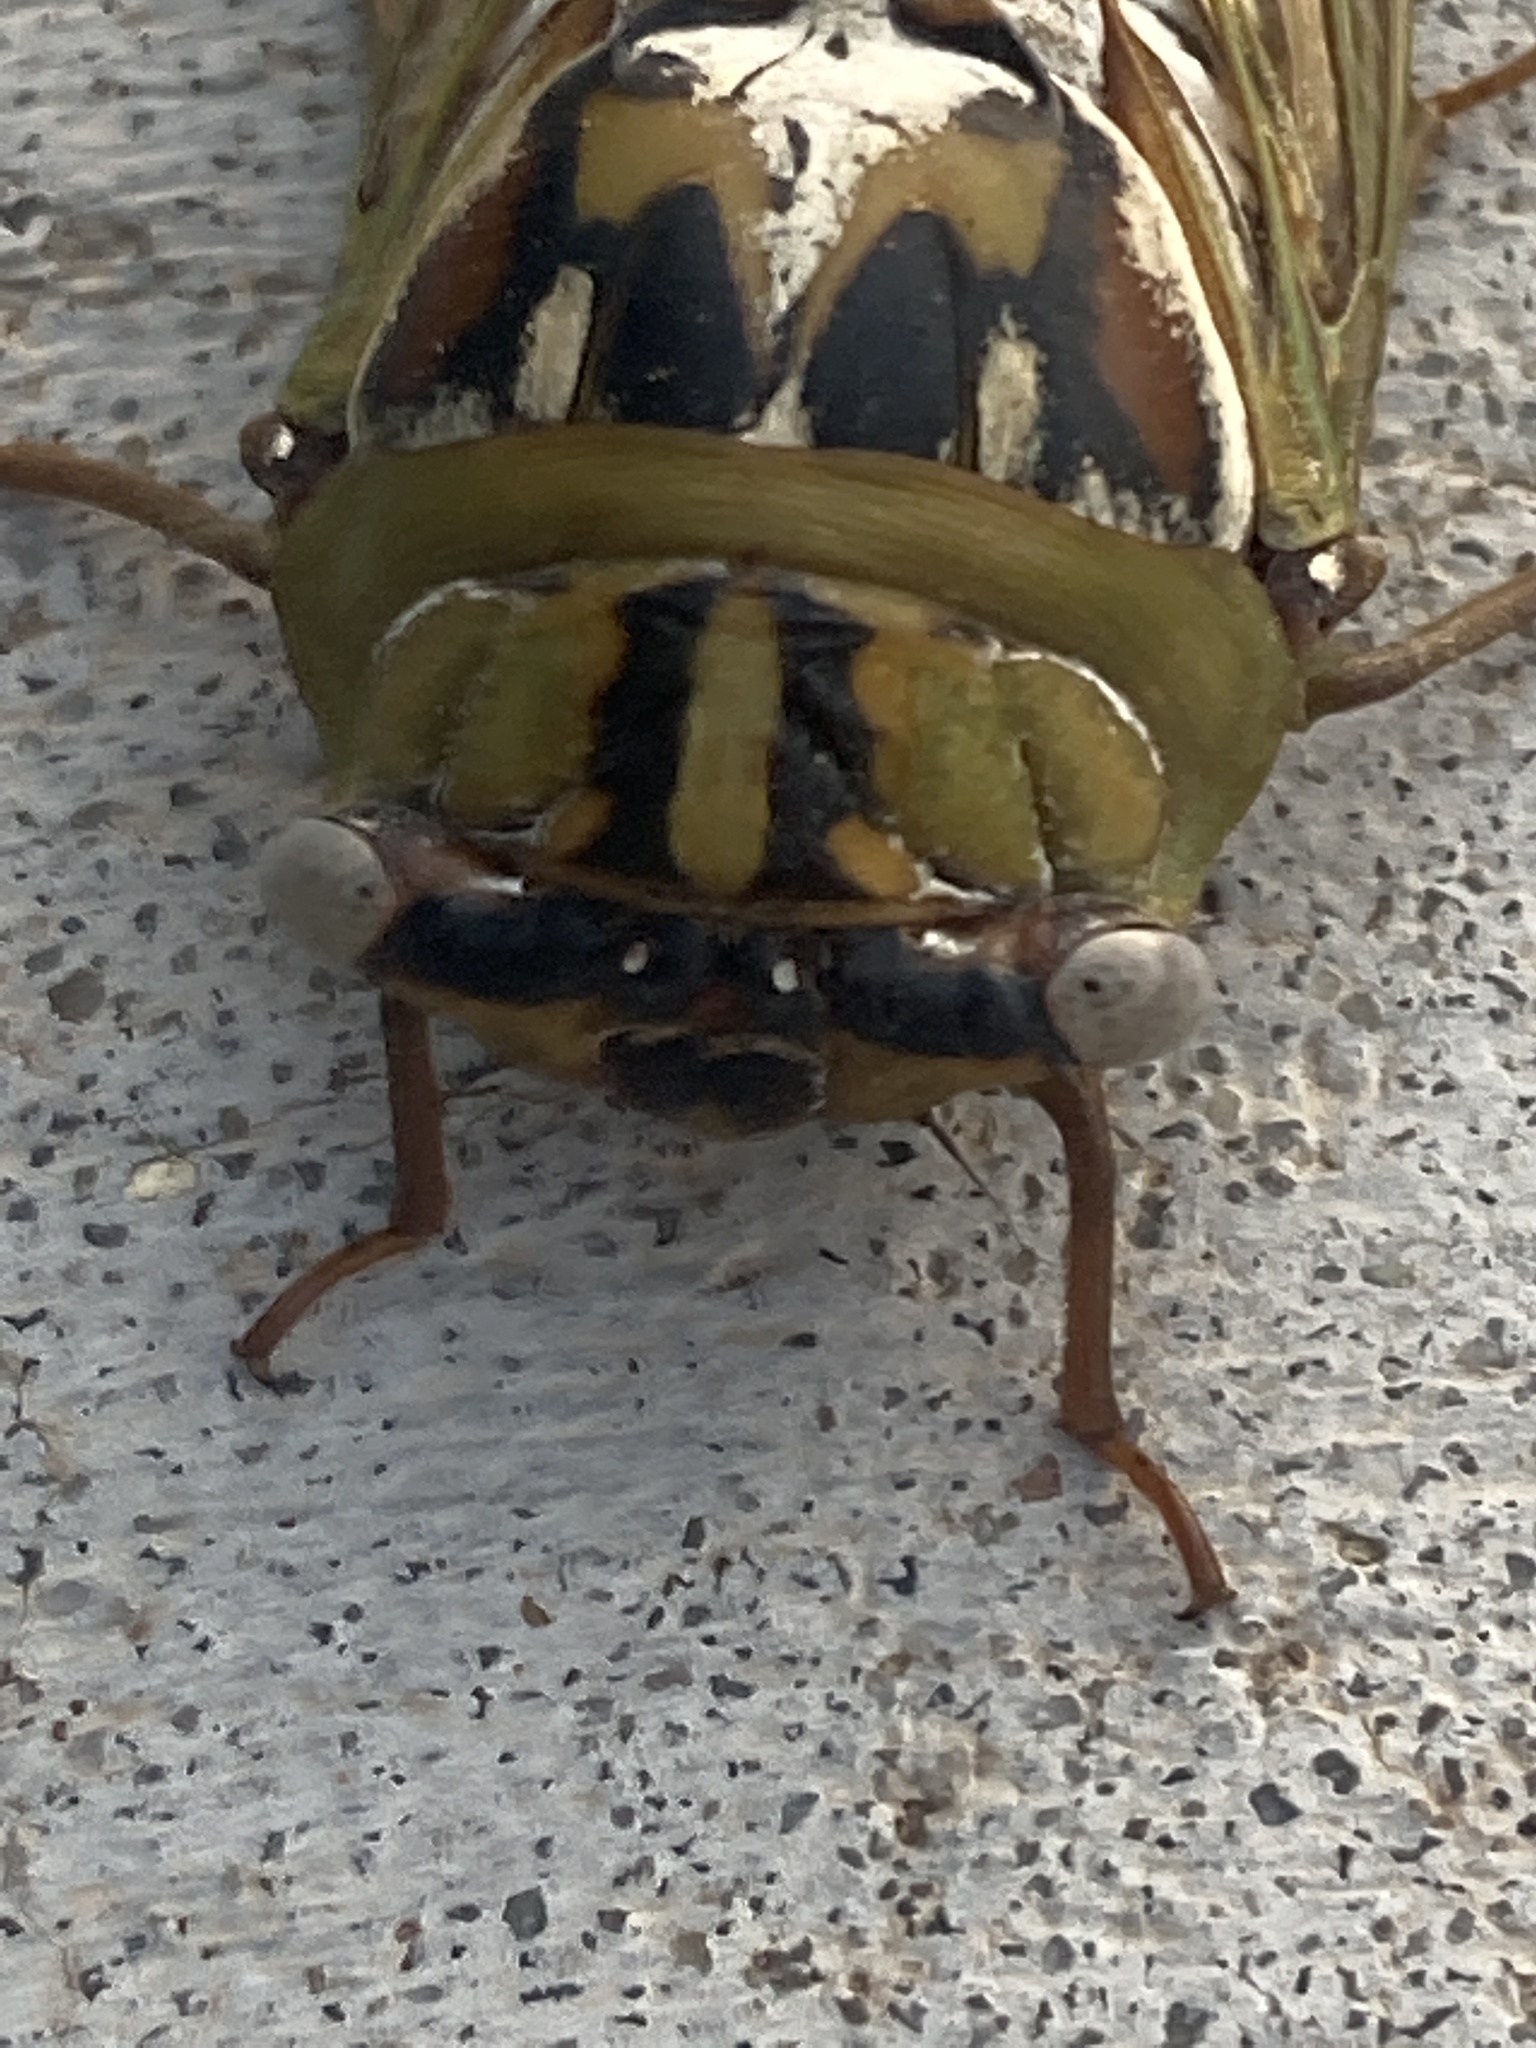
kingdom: Animalia
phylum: Arthropoda
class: Insecta
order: Hemiptera
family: Cicadidae
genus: Megatibicen
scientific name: Megatibicen dealbatus
